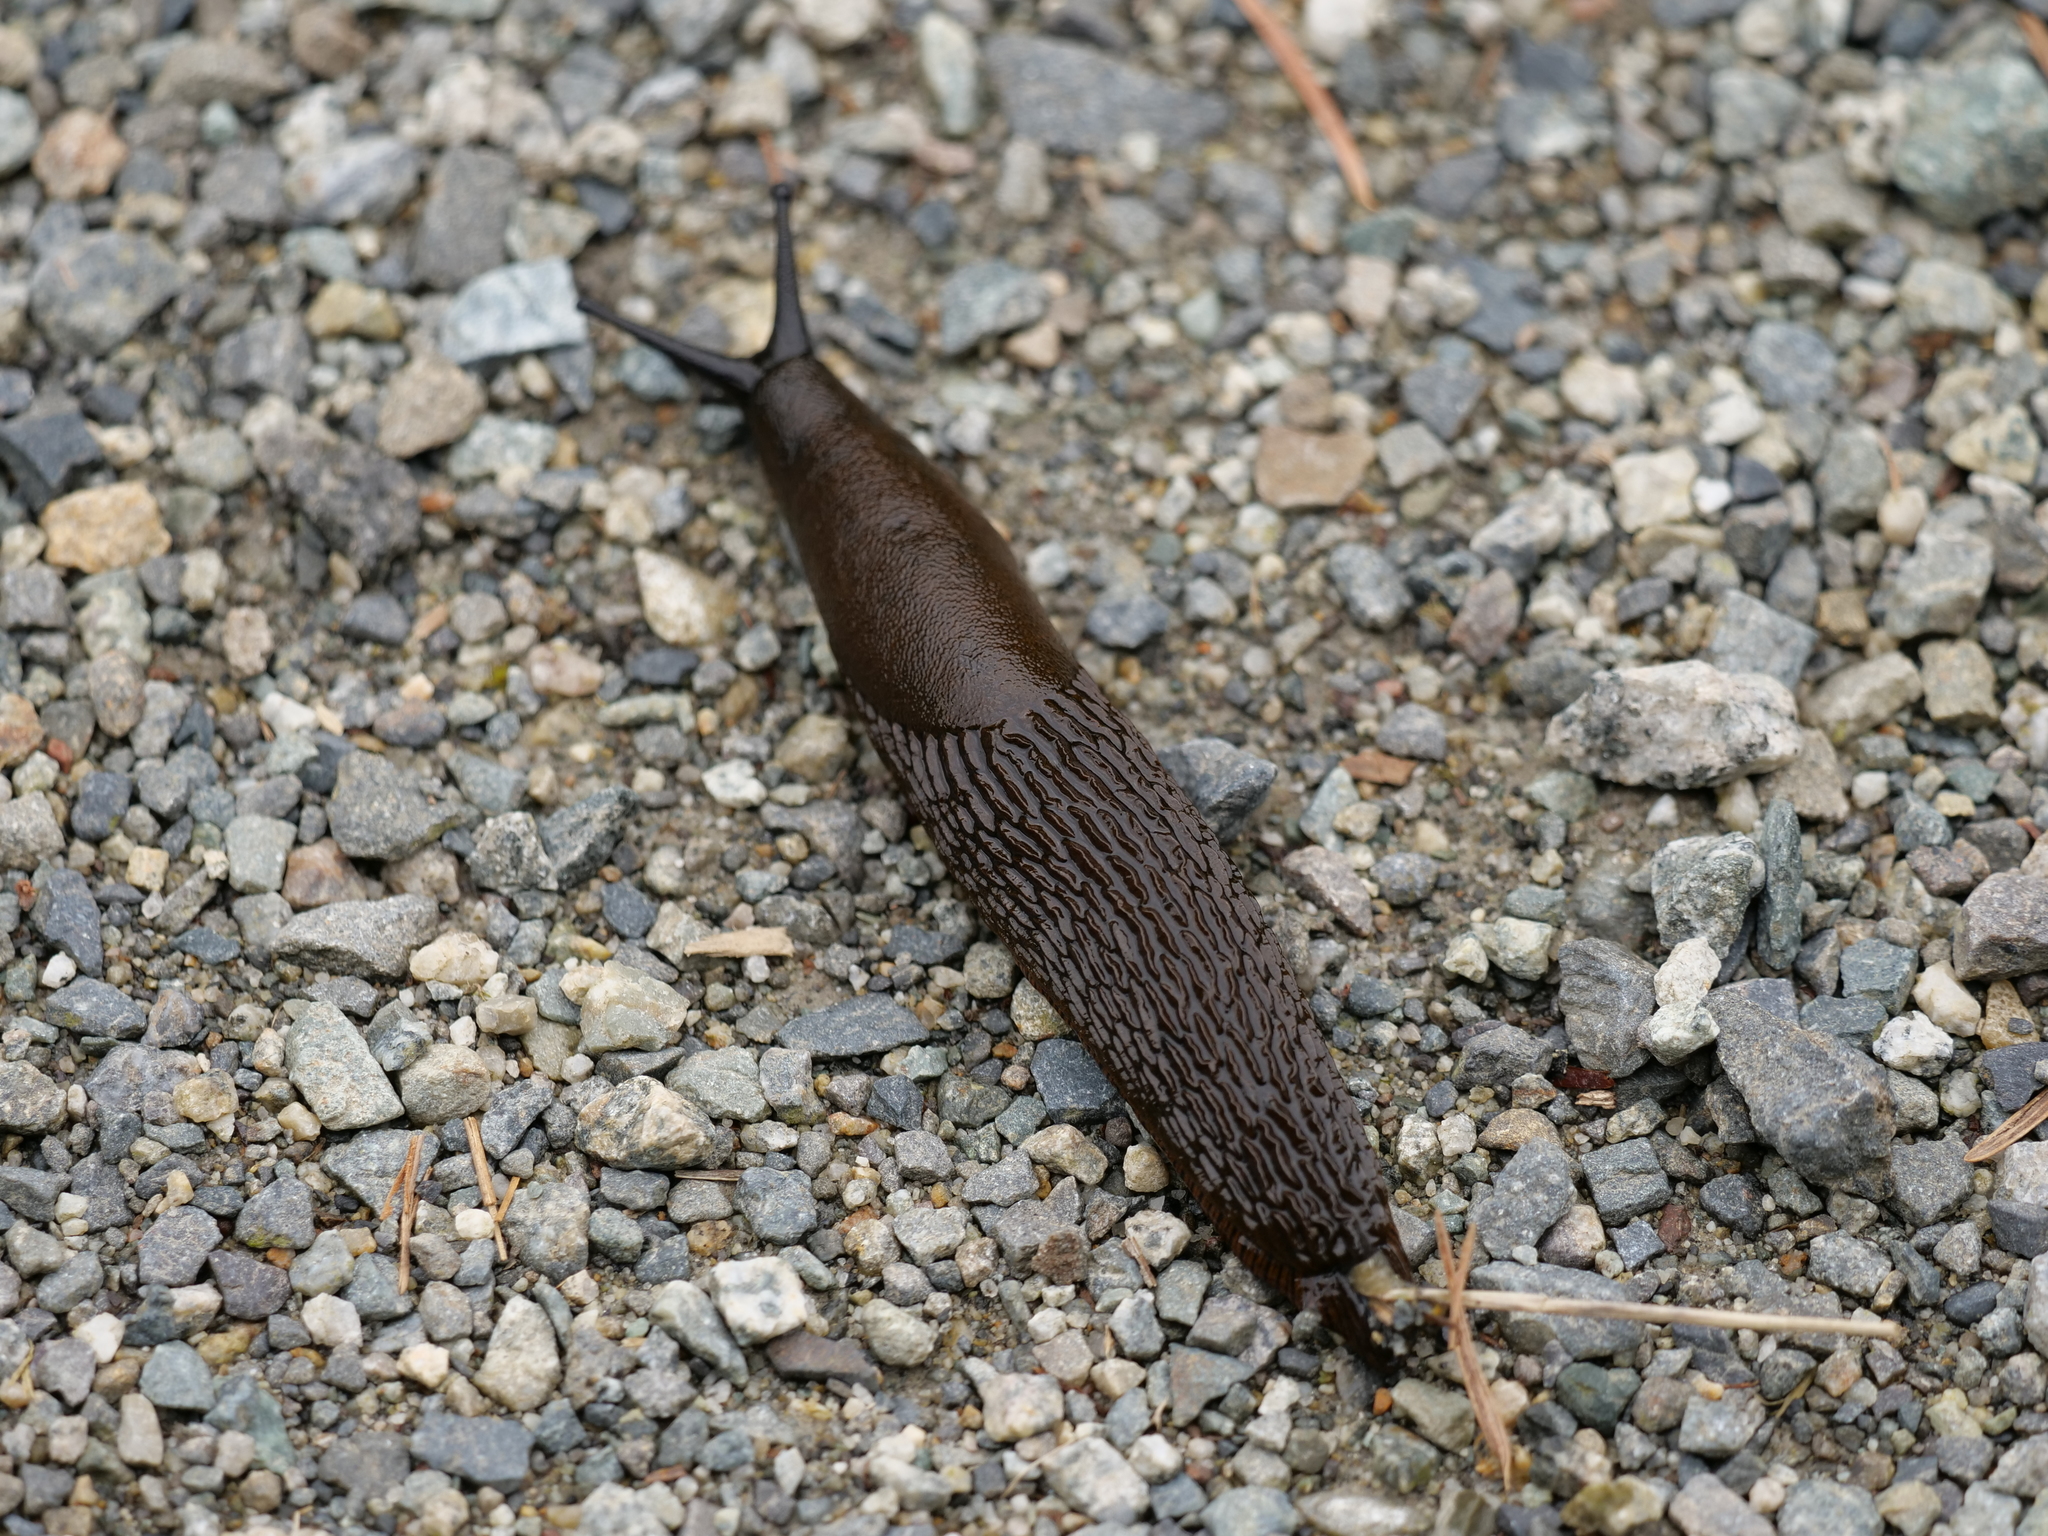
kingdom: Animalia
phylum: Mollusca
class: Gastropoda
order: Stylommatophora
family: Arionidae
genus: Arion
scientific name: Arion rufus
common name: Chocolate arion
